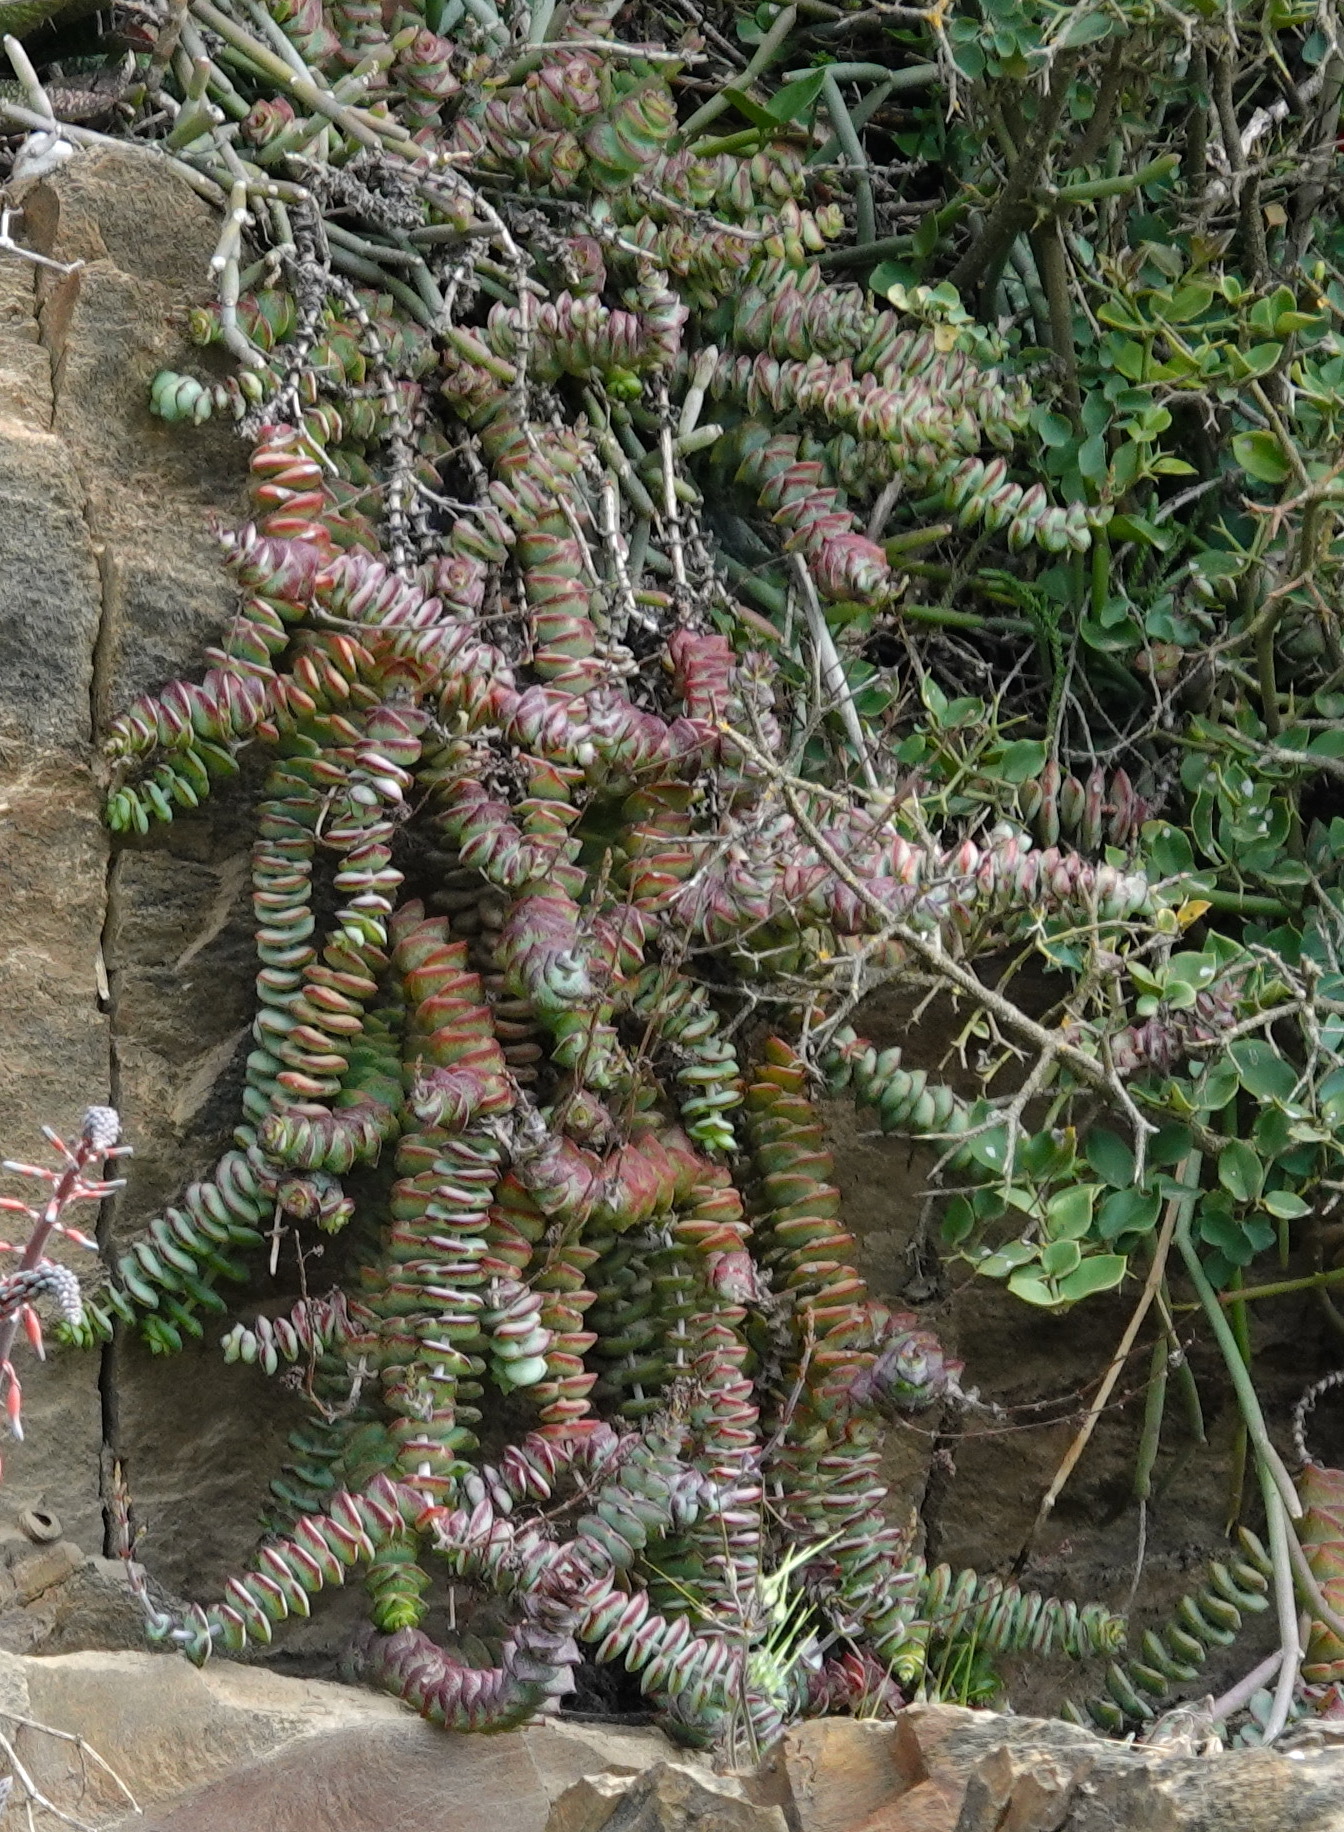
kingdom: Plantae
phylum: Tracheophyta
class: Magnoliopsida
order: Saxifragales
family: Crassulaceae
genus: Crassula
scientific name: Crassula perforata
